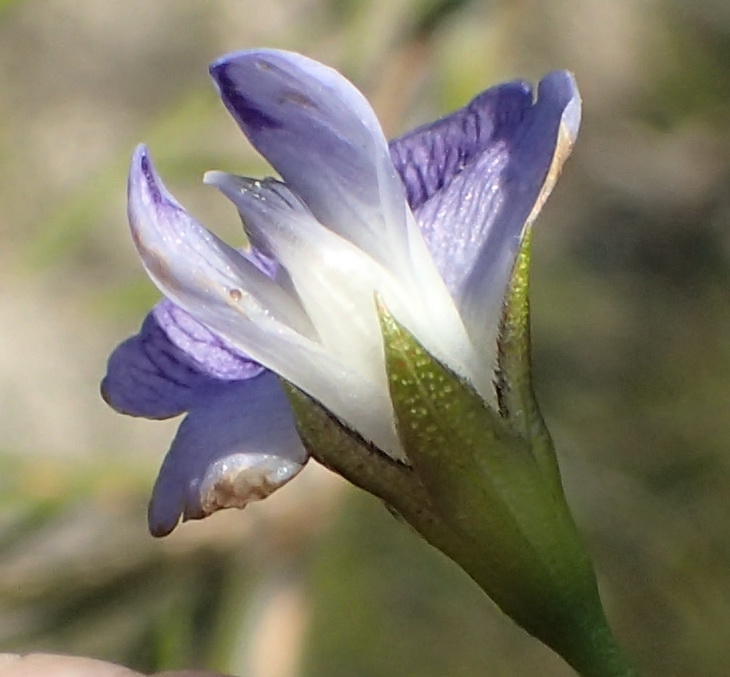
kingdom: Plantae
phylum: Tracheophyta
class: Magnoliopsida
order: Fabales
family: Fabaceae
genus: Psoralea
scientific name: Psoralea diturnerae
